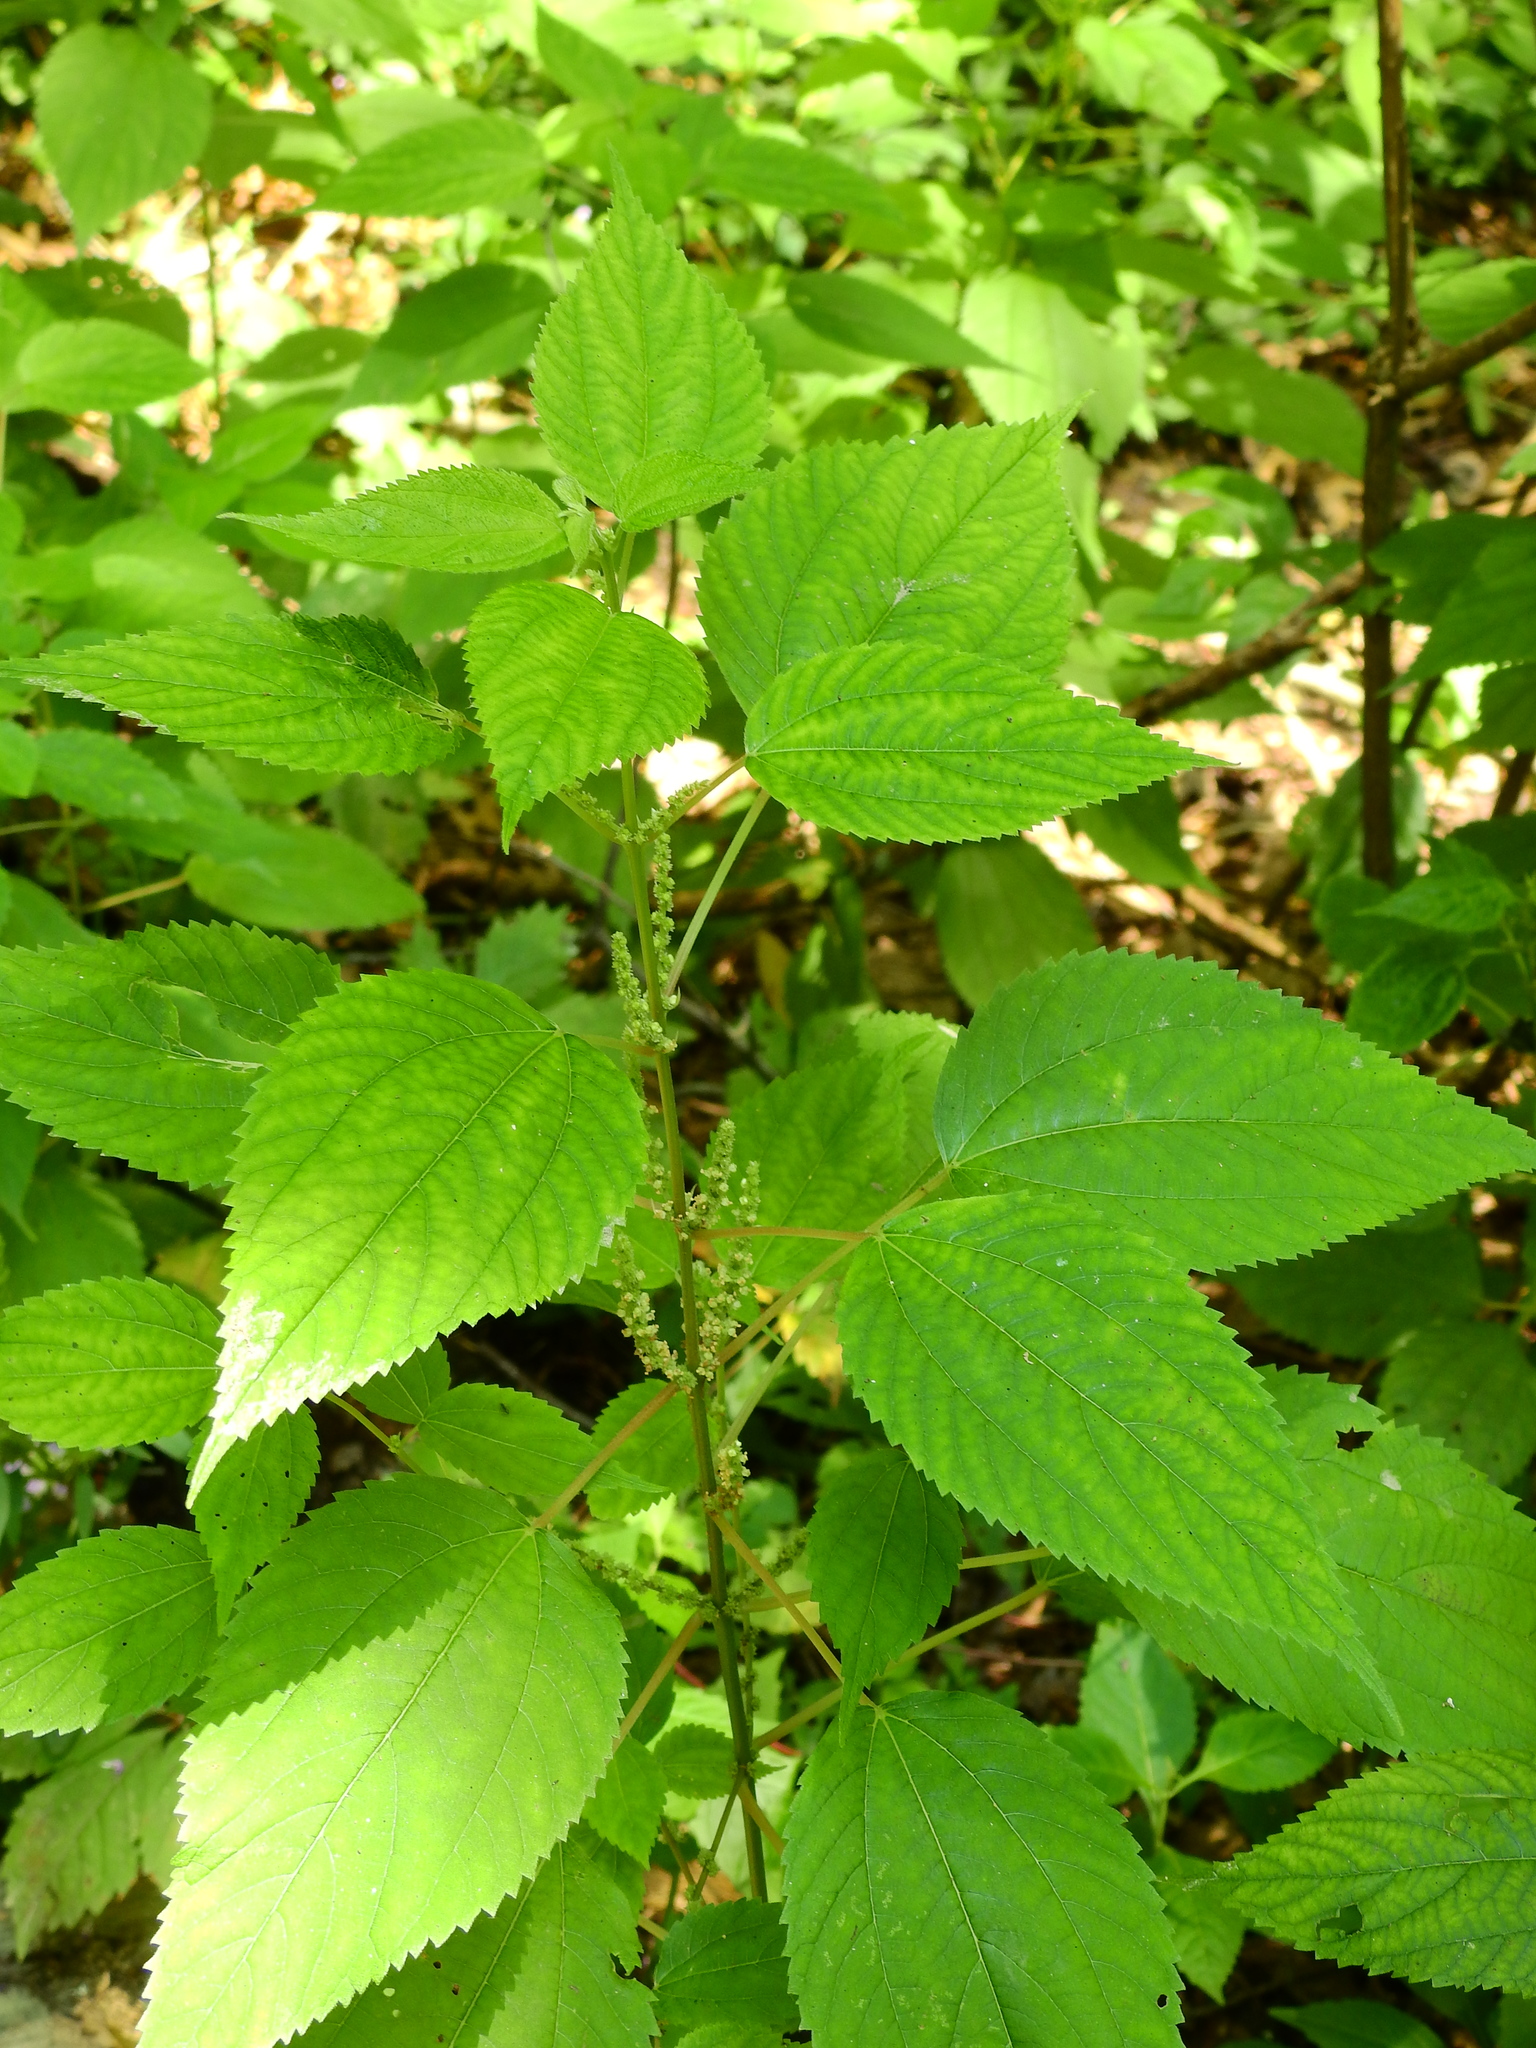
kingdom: Plantae
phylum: Tracheophyta
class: Magnoliopsida
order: Rosales
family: Urticaceae
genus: Boehmeria
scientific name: Boehmeria cylindrica
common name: Bog-hemp
